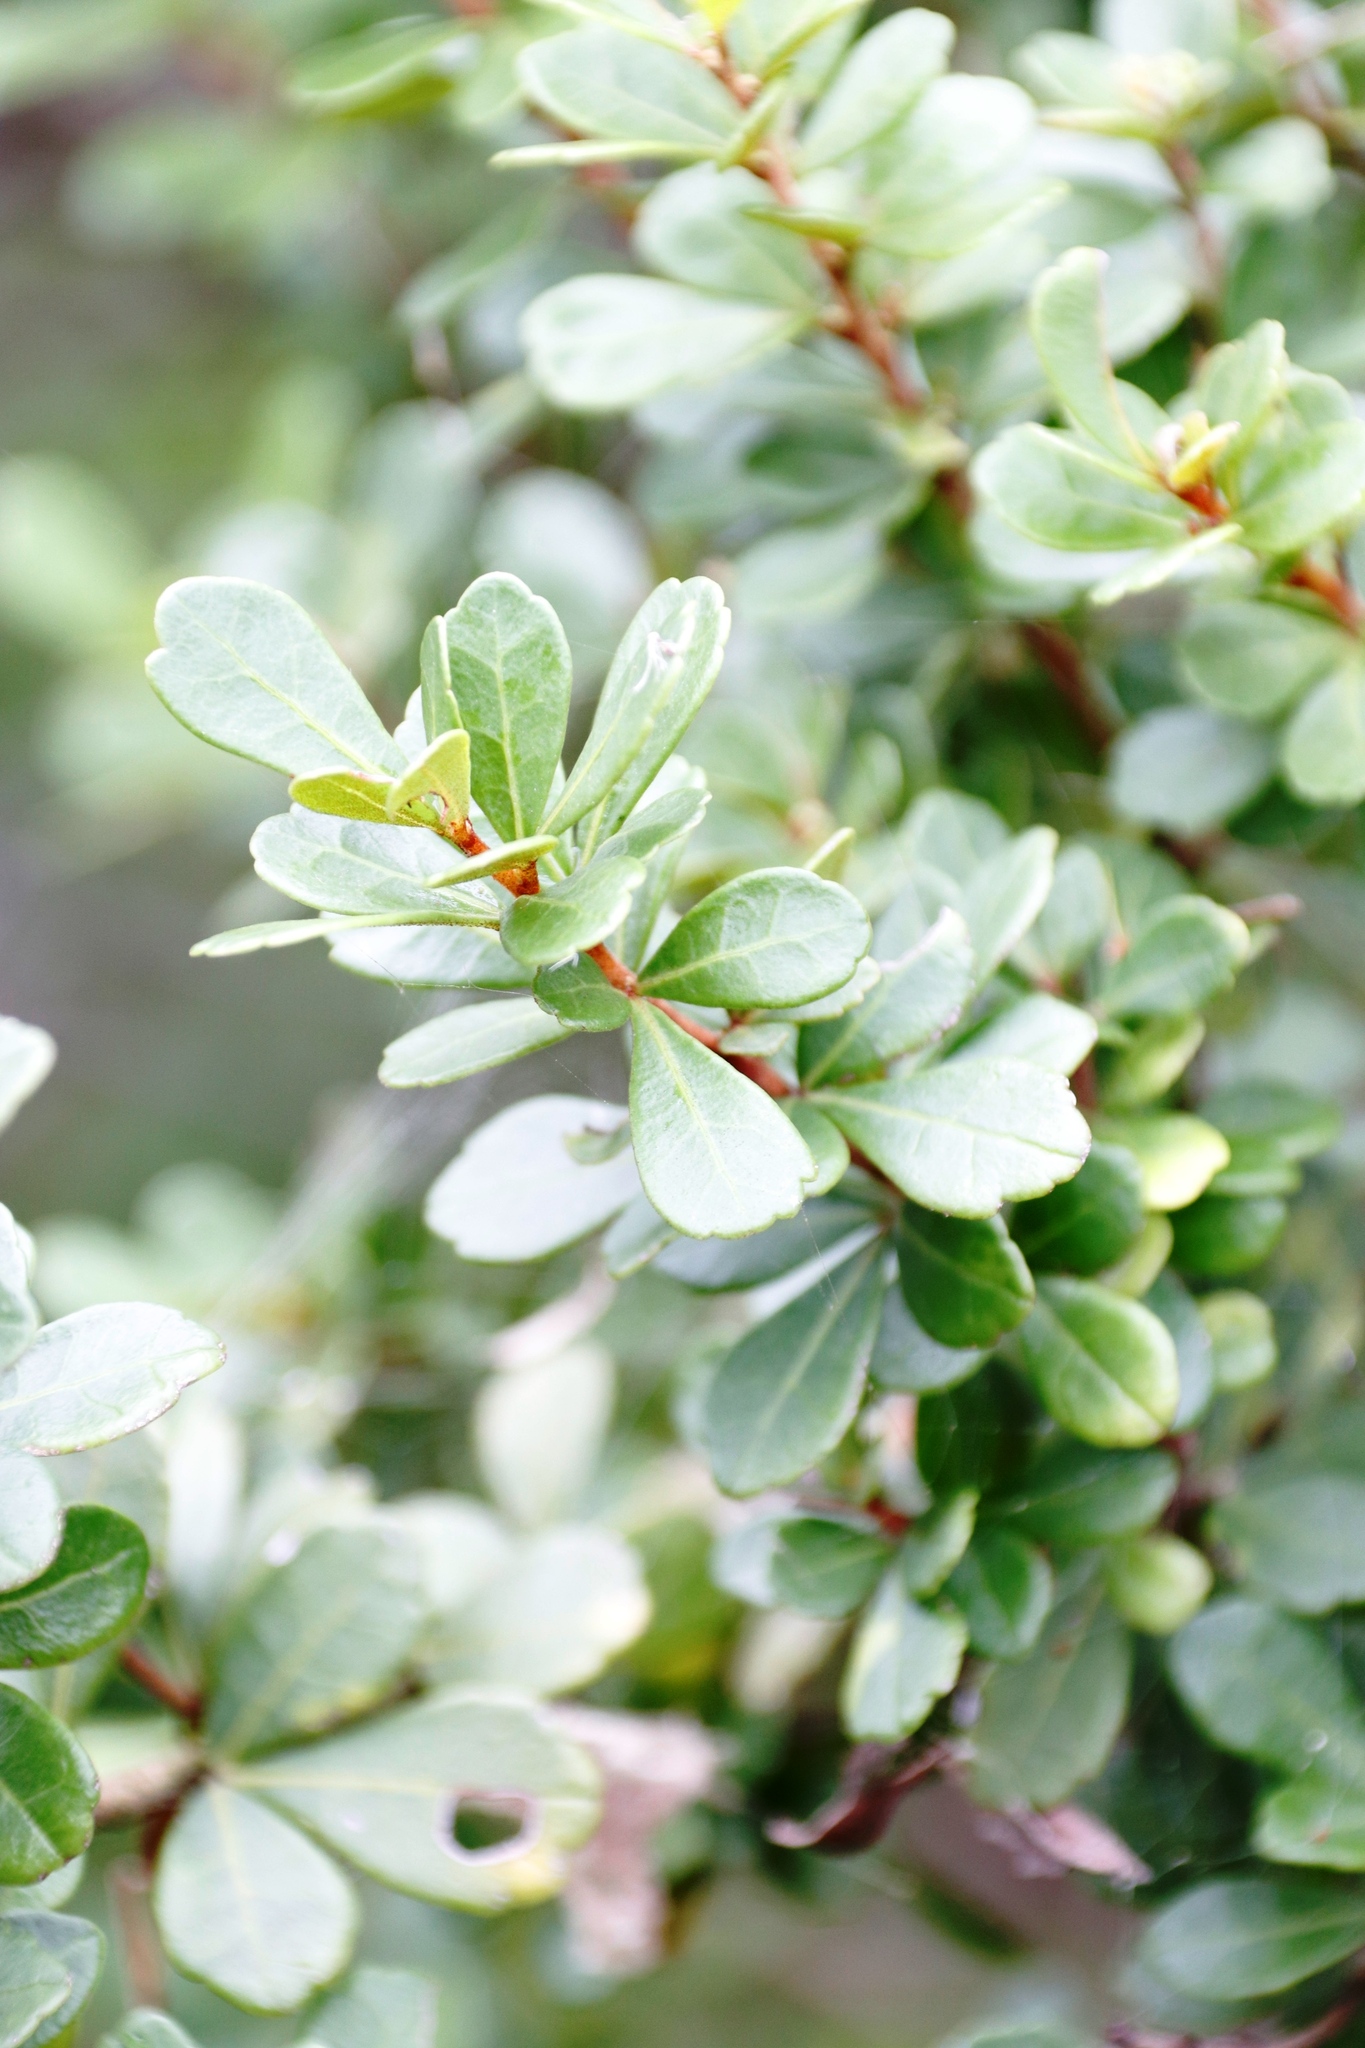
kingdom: Plantae
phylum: Tracheophyta
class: Magnoliopsida
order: Sapindales
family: Anacardiaceae
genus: Searsia
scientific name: Searsia crenata
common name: Crowberry
